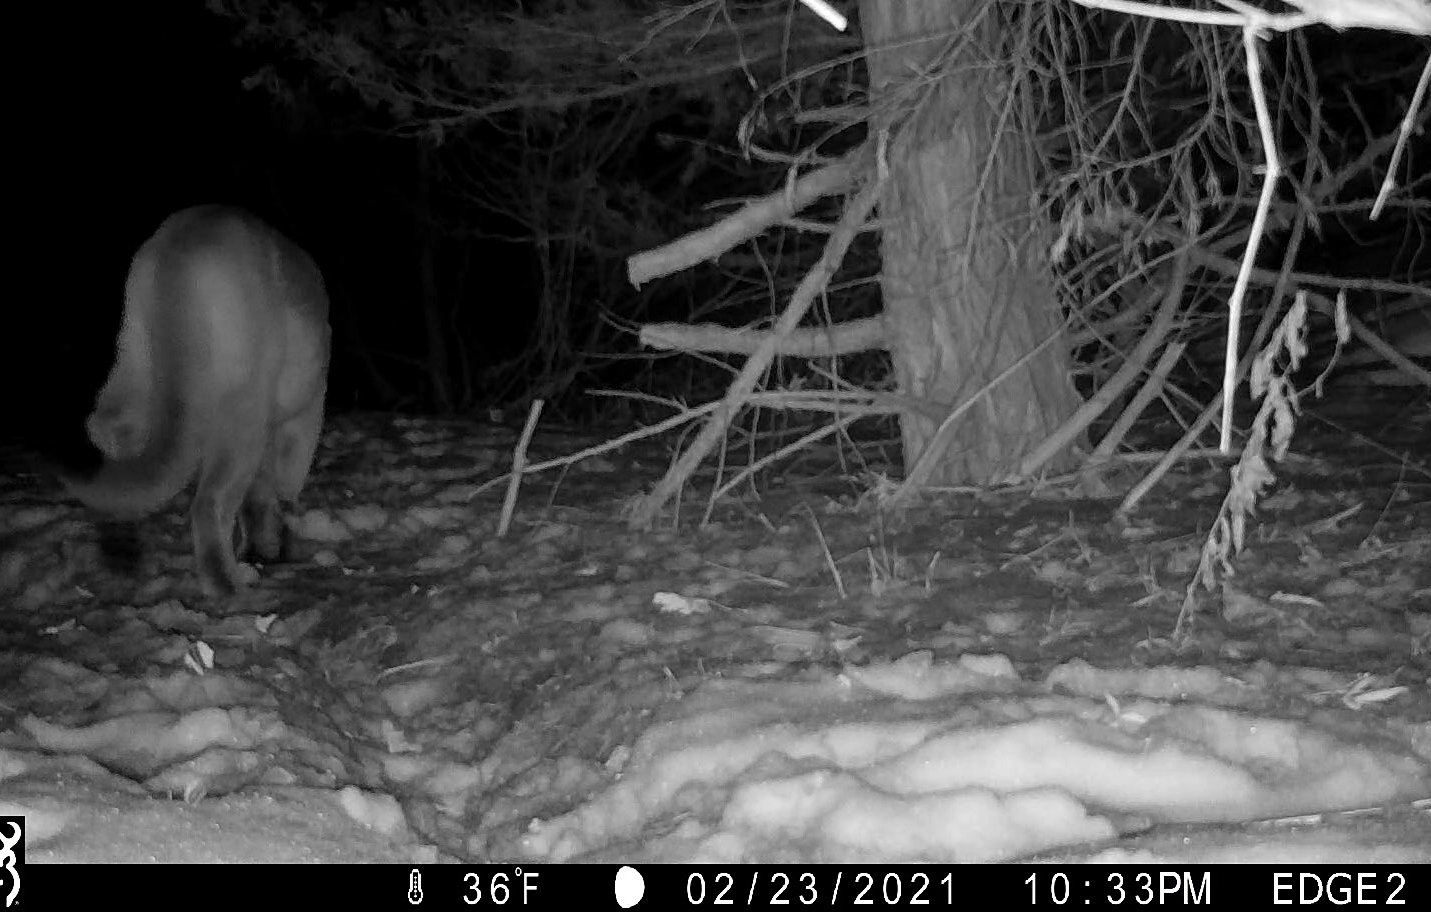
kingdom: Animalia
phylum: Chordata
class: Mammalia
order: Carnivora
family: Felidae
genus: Puma
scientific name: Puma concolor
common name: Puma
